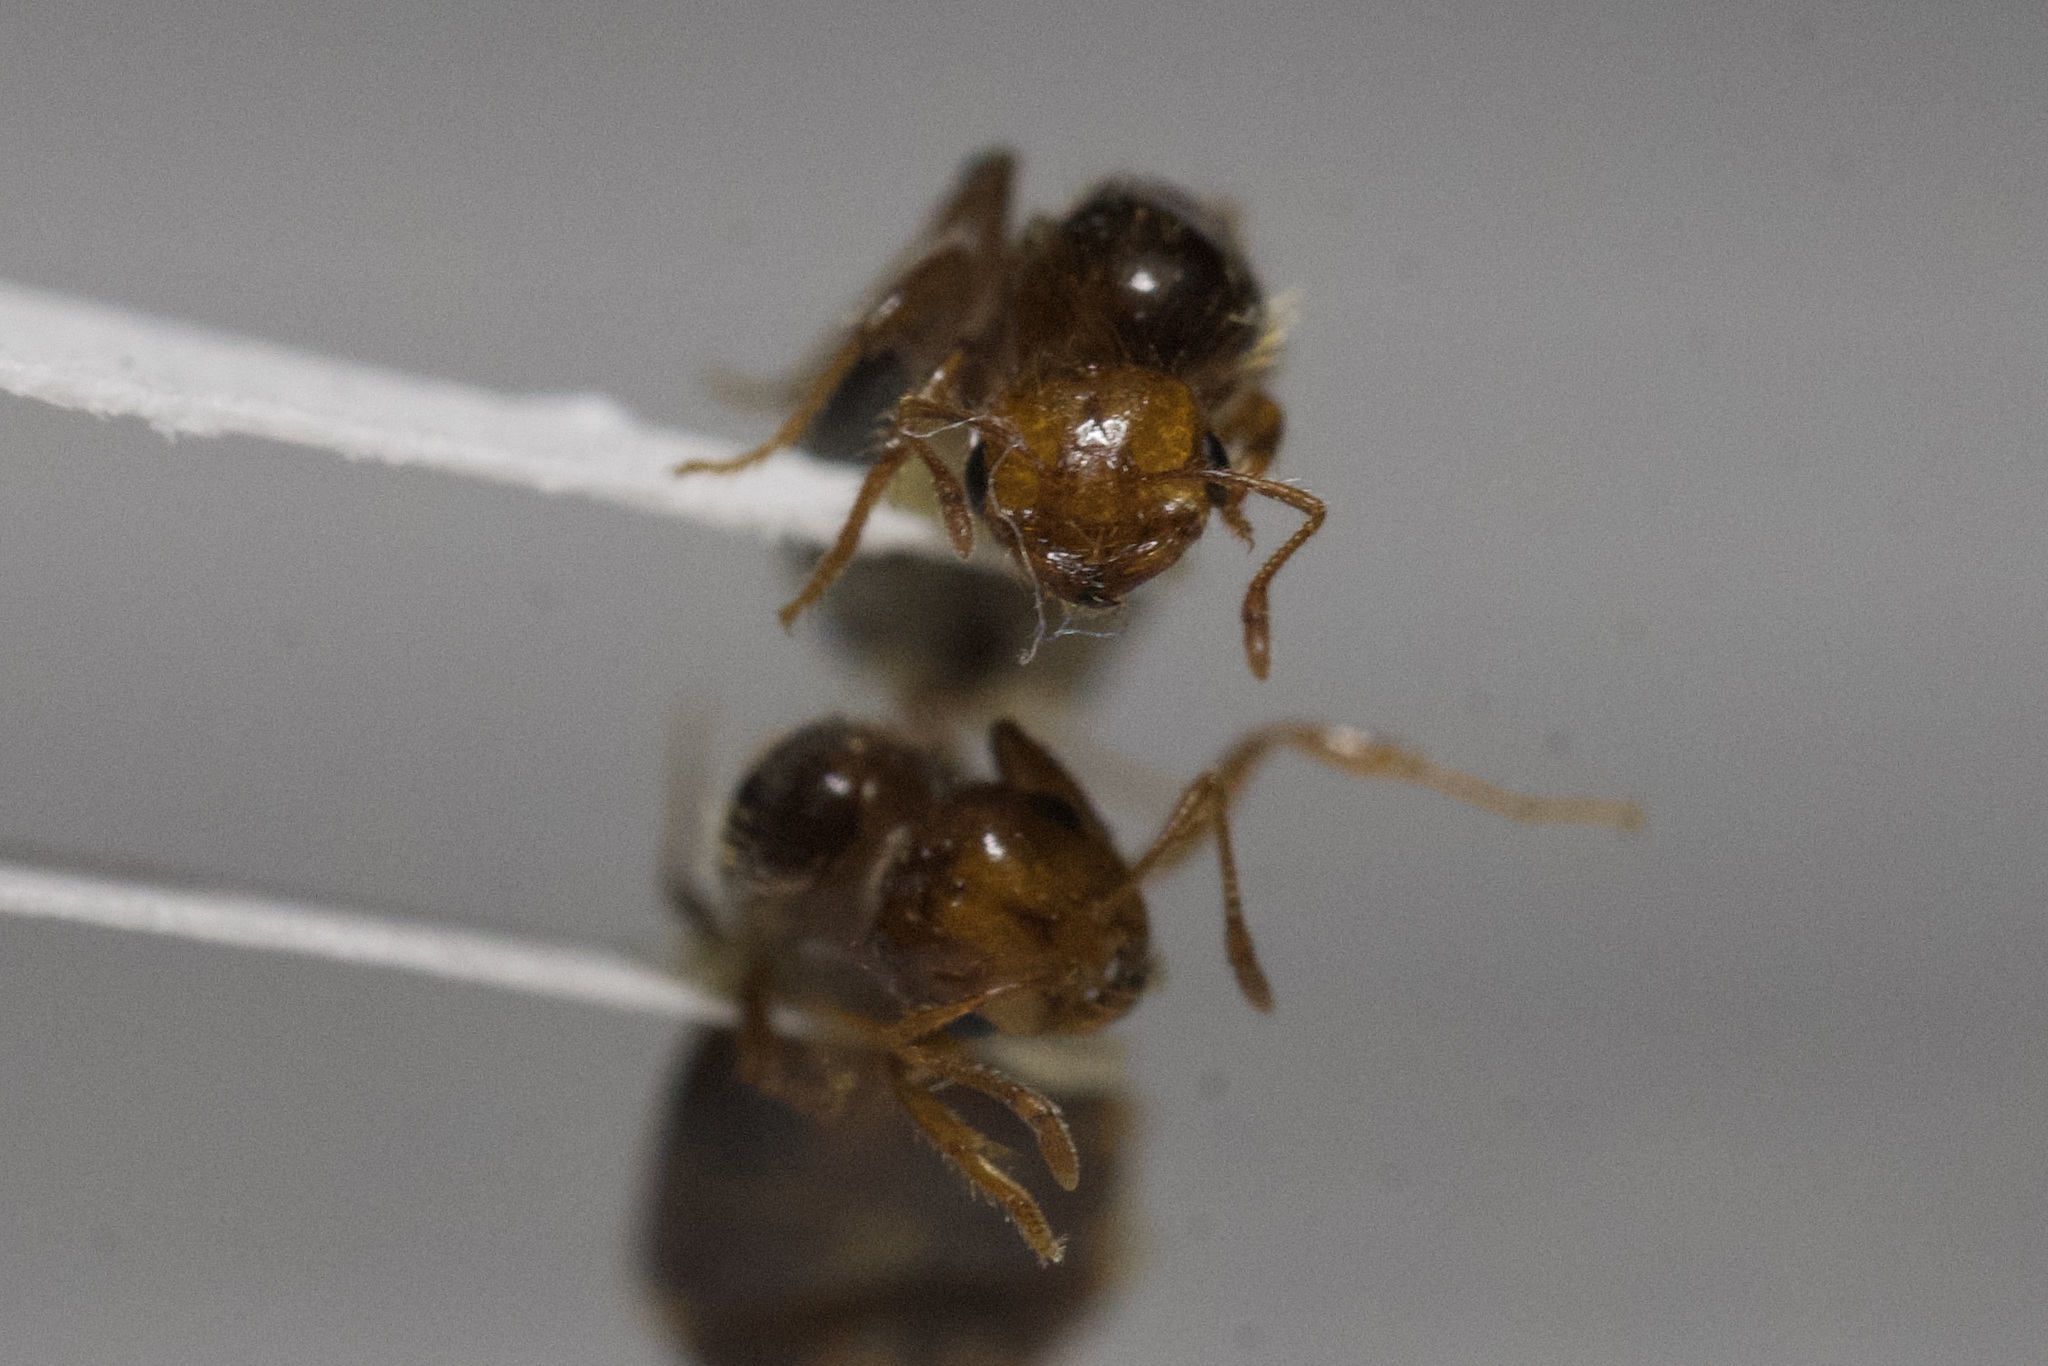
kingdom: Animalia
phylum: Arthropoda
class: Insecta
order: Hymenoptera
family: Formicidae
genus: Solenopsis
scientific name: Solenopsis invicta
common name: Red imported fire ant
